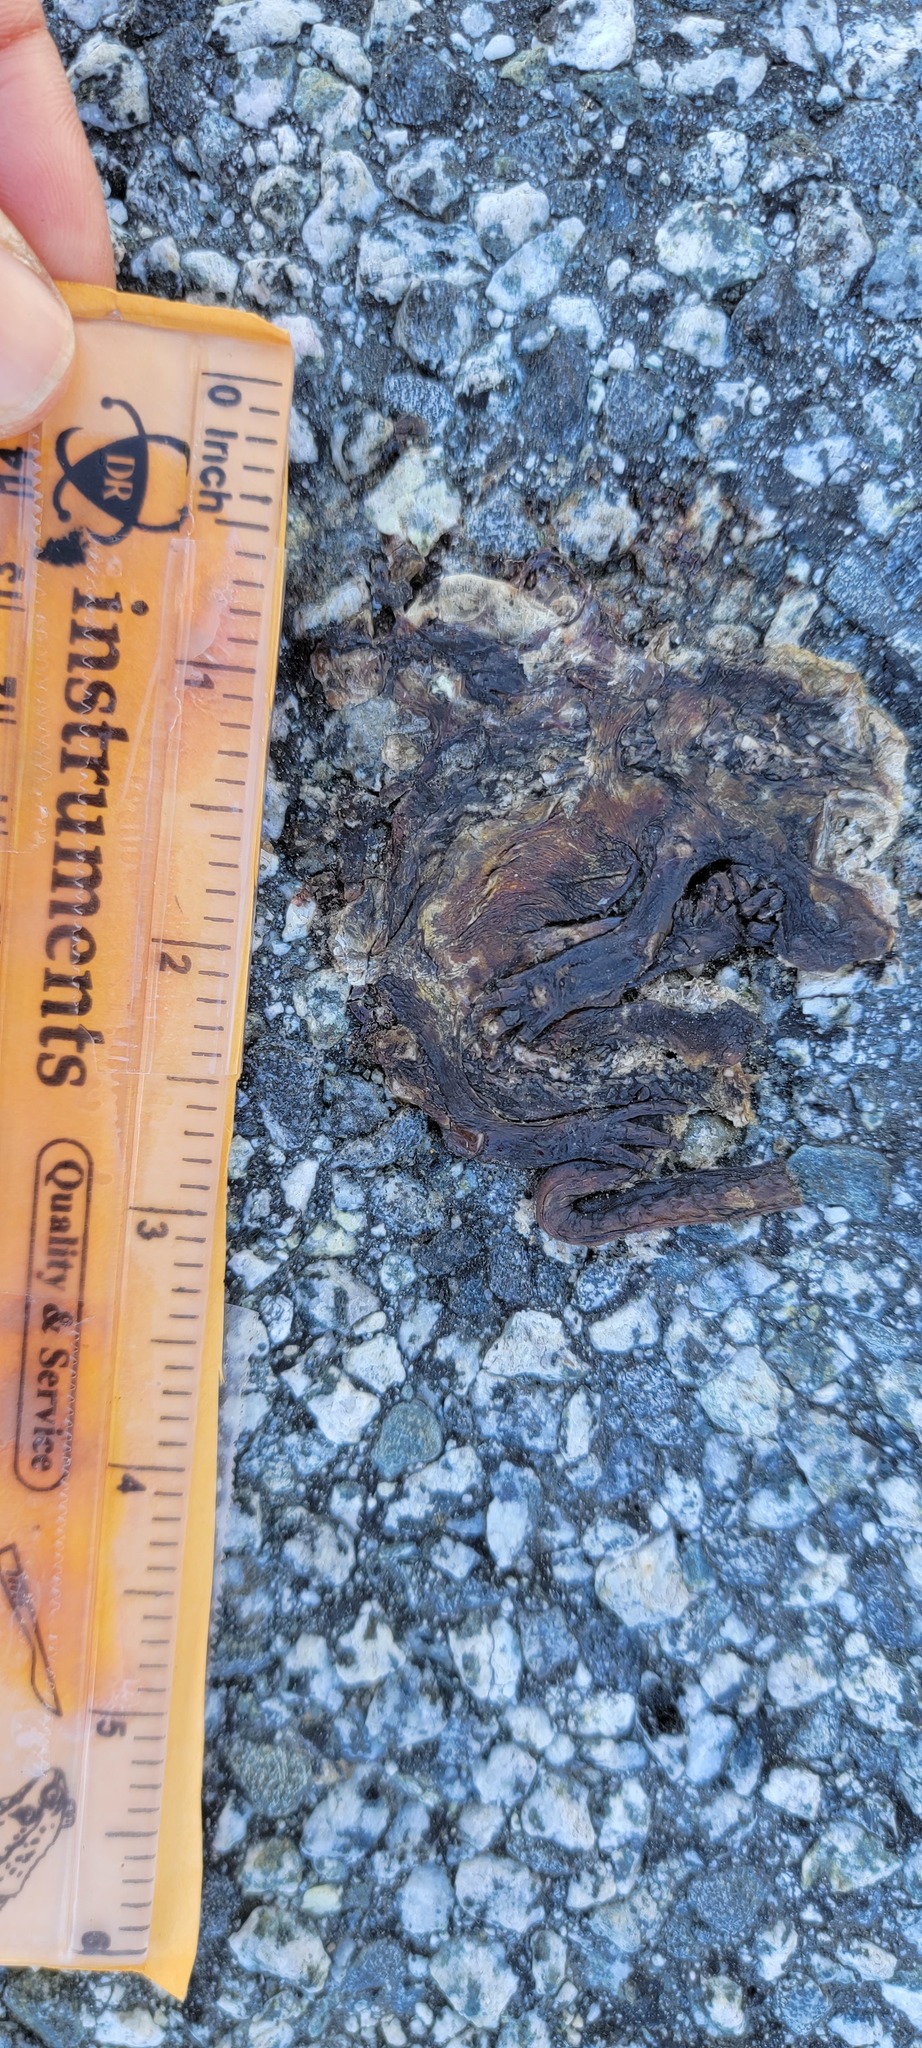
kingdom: Animalia
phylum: Chordata
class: Amphibia
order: Caudata
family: Salamandridae
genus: Taricha
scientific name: Taricha
